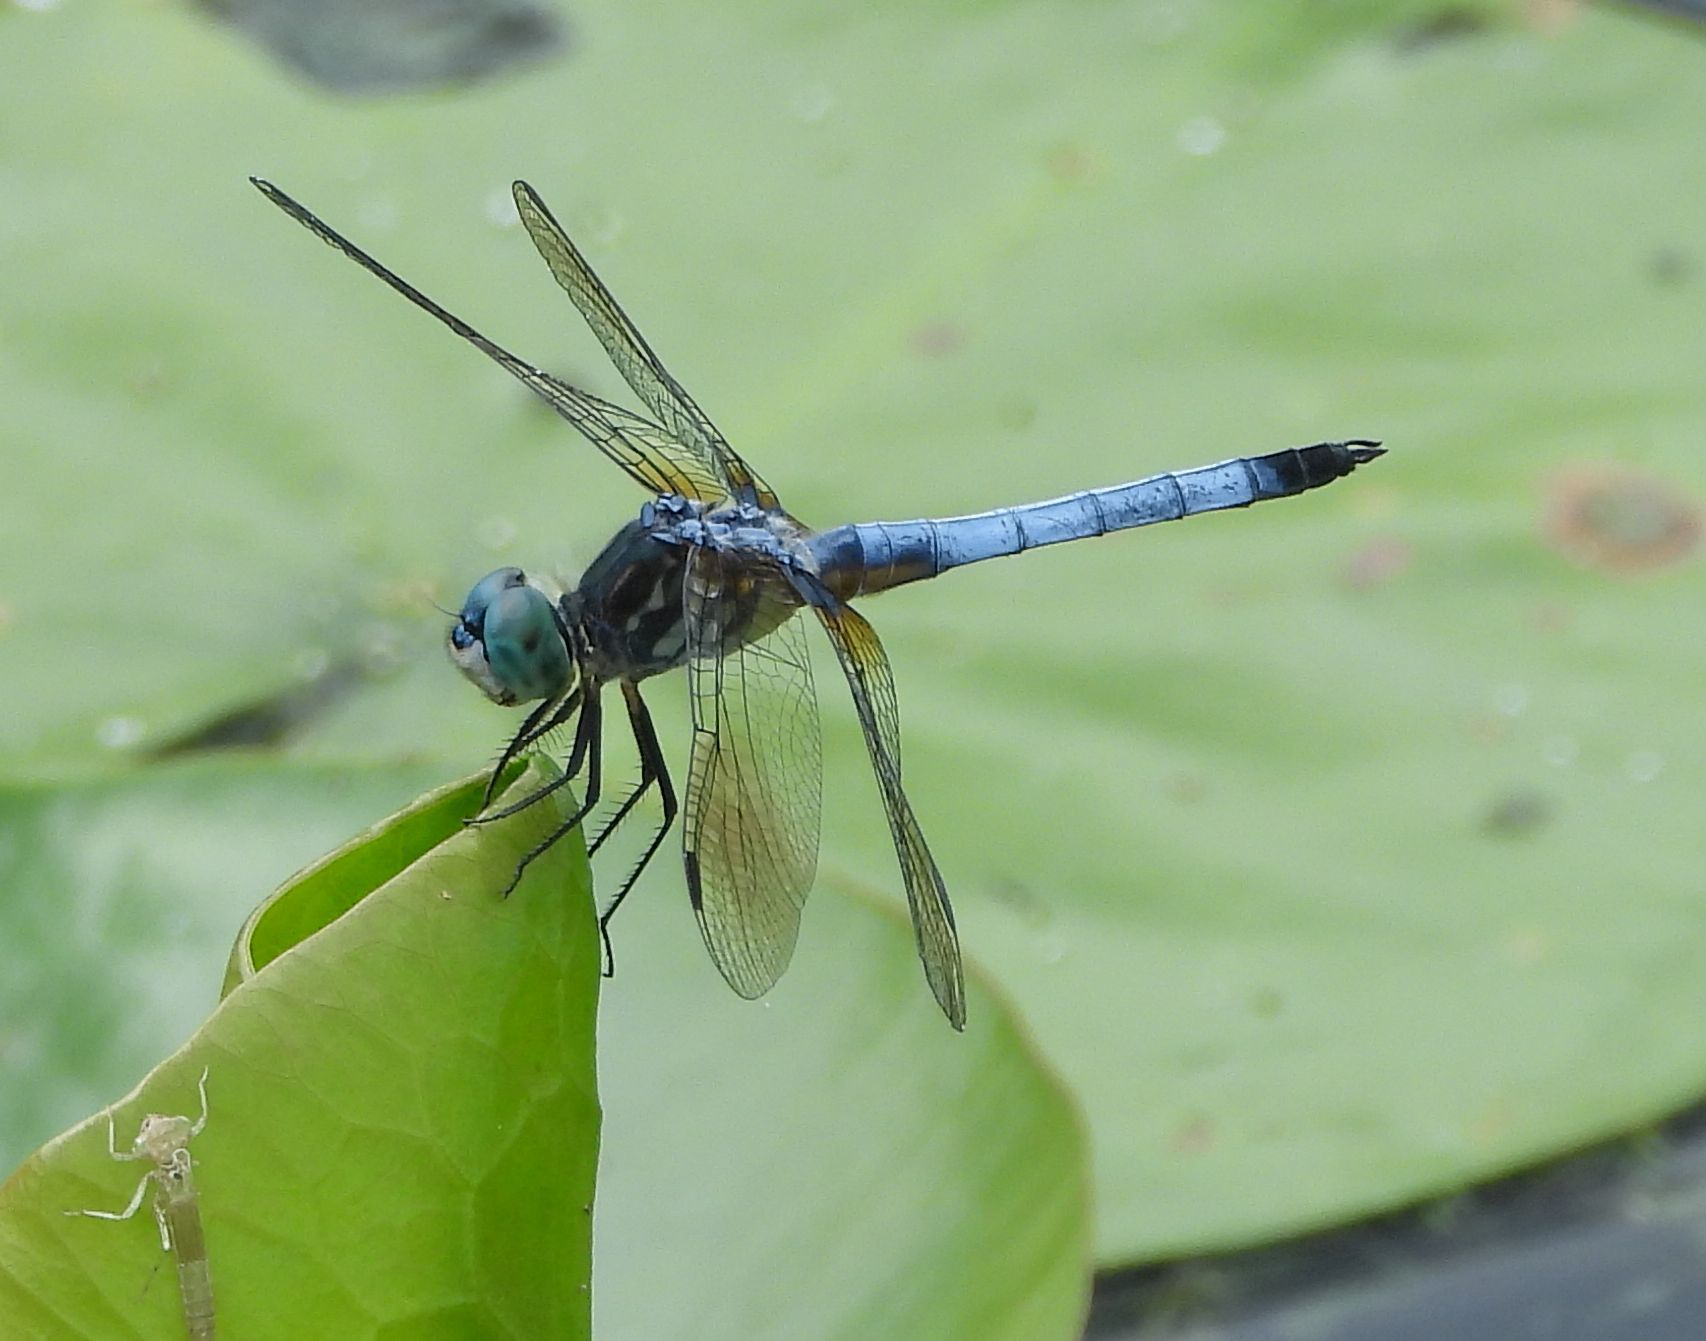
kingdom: Animalia
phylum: Arthropoda
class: Insecta
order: Odonata
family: Libellulidae
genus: Pachydiplax
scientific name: Pachydiplax longipennis
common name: Blue dasher
